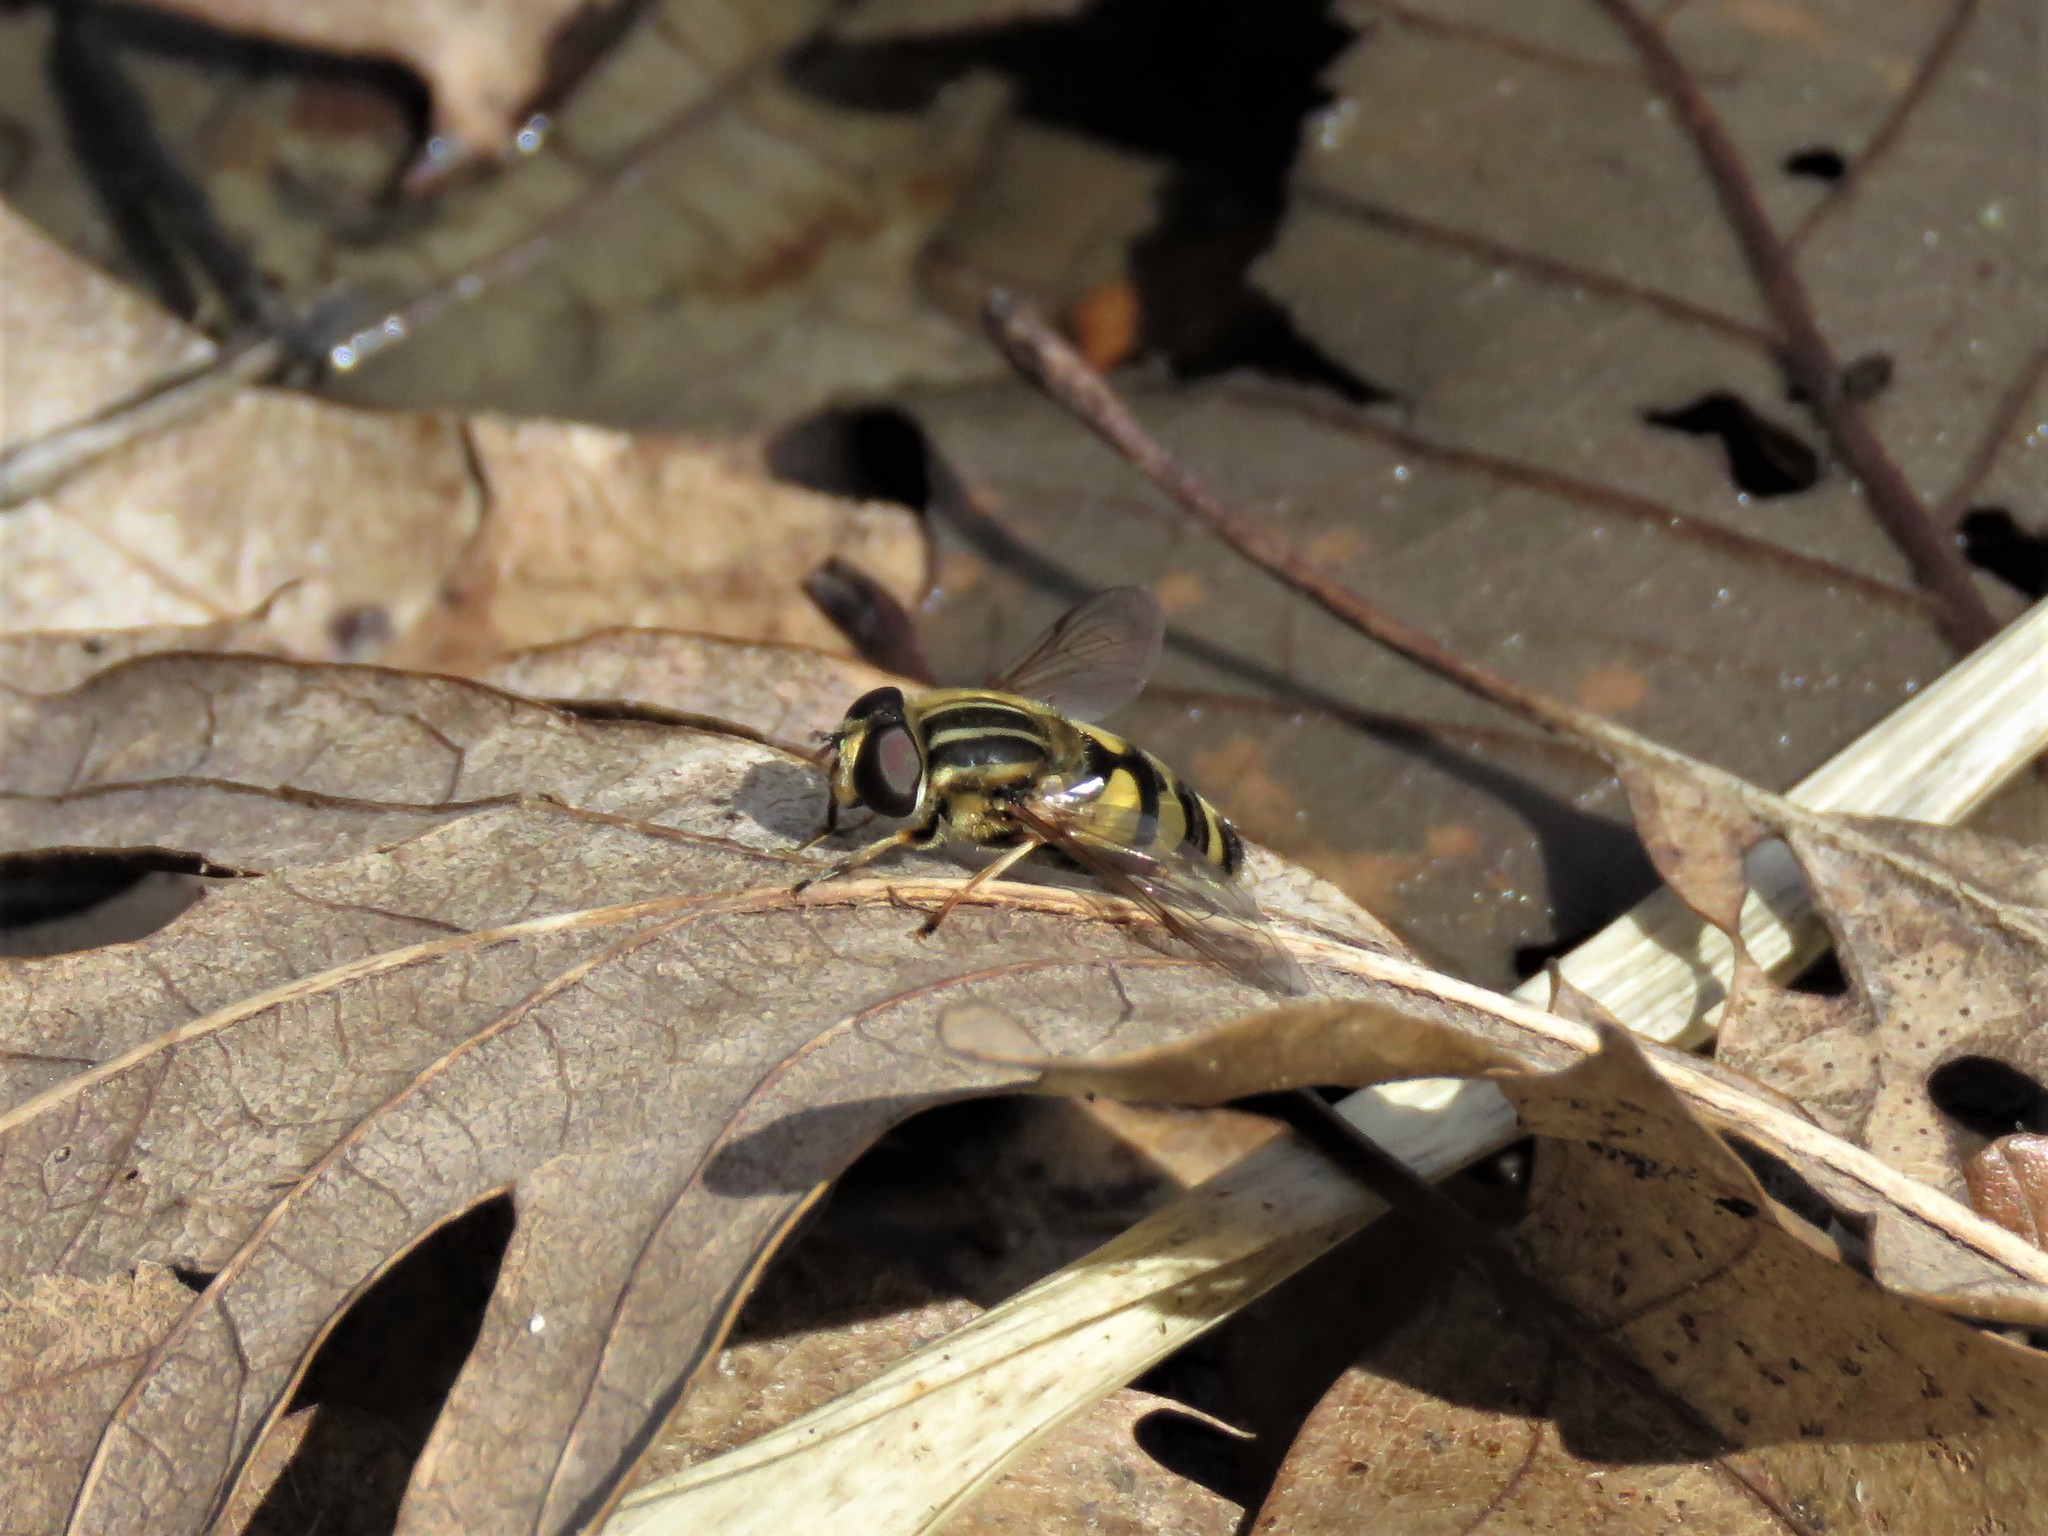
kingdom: Animalia
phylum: Arthropoda
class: Insecta
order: Diptera
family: Syrphidae
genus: Helophilus
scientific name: Helophilus fasciatus
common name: Narrow-headed marsh fly
